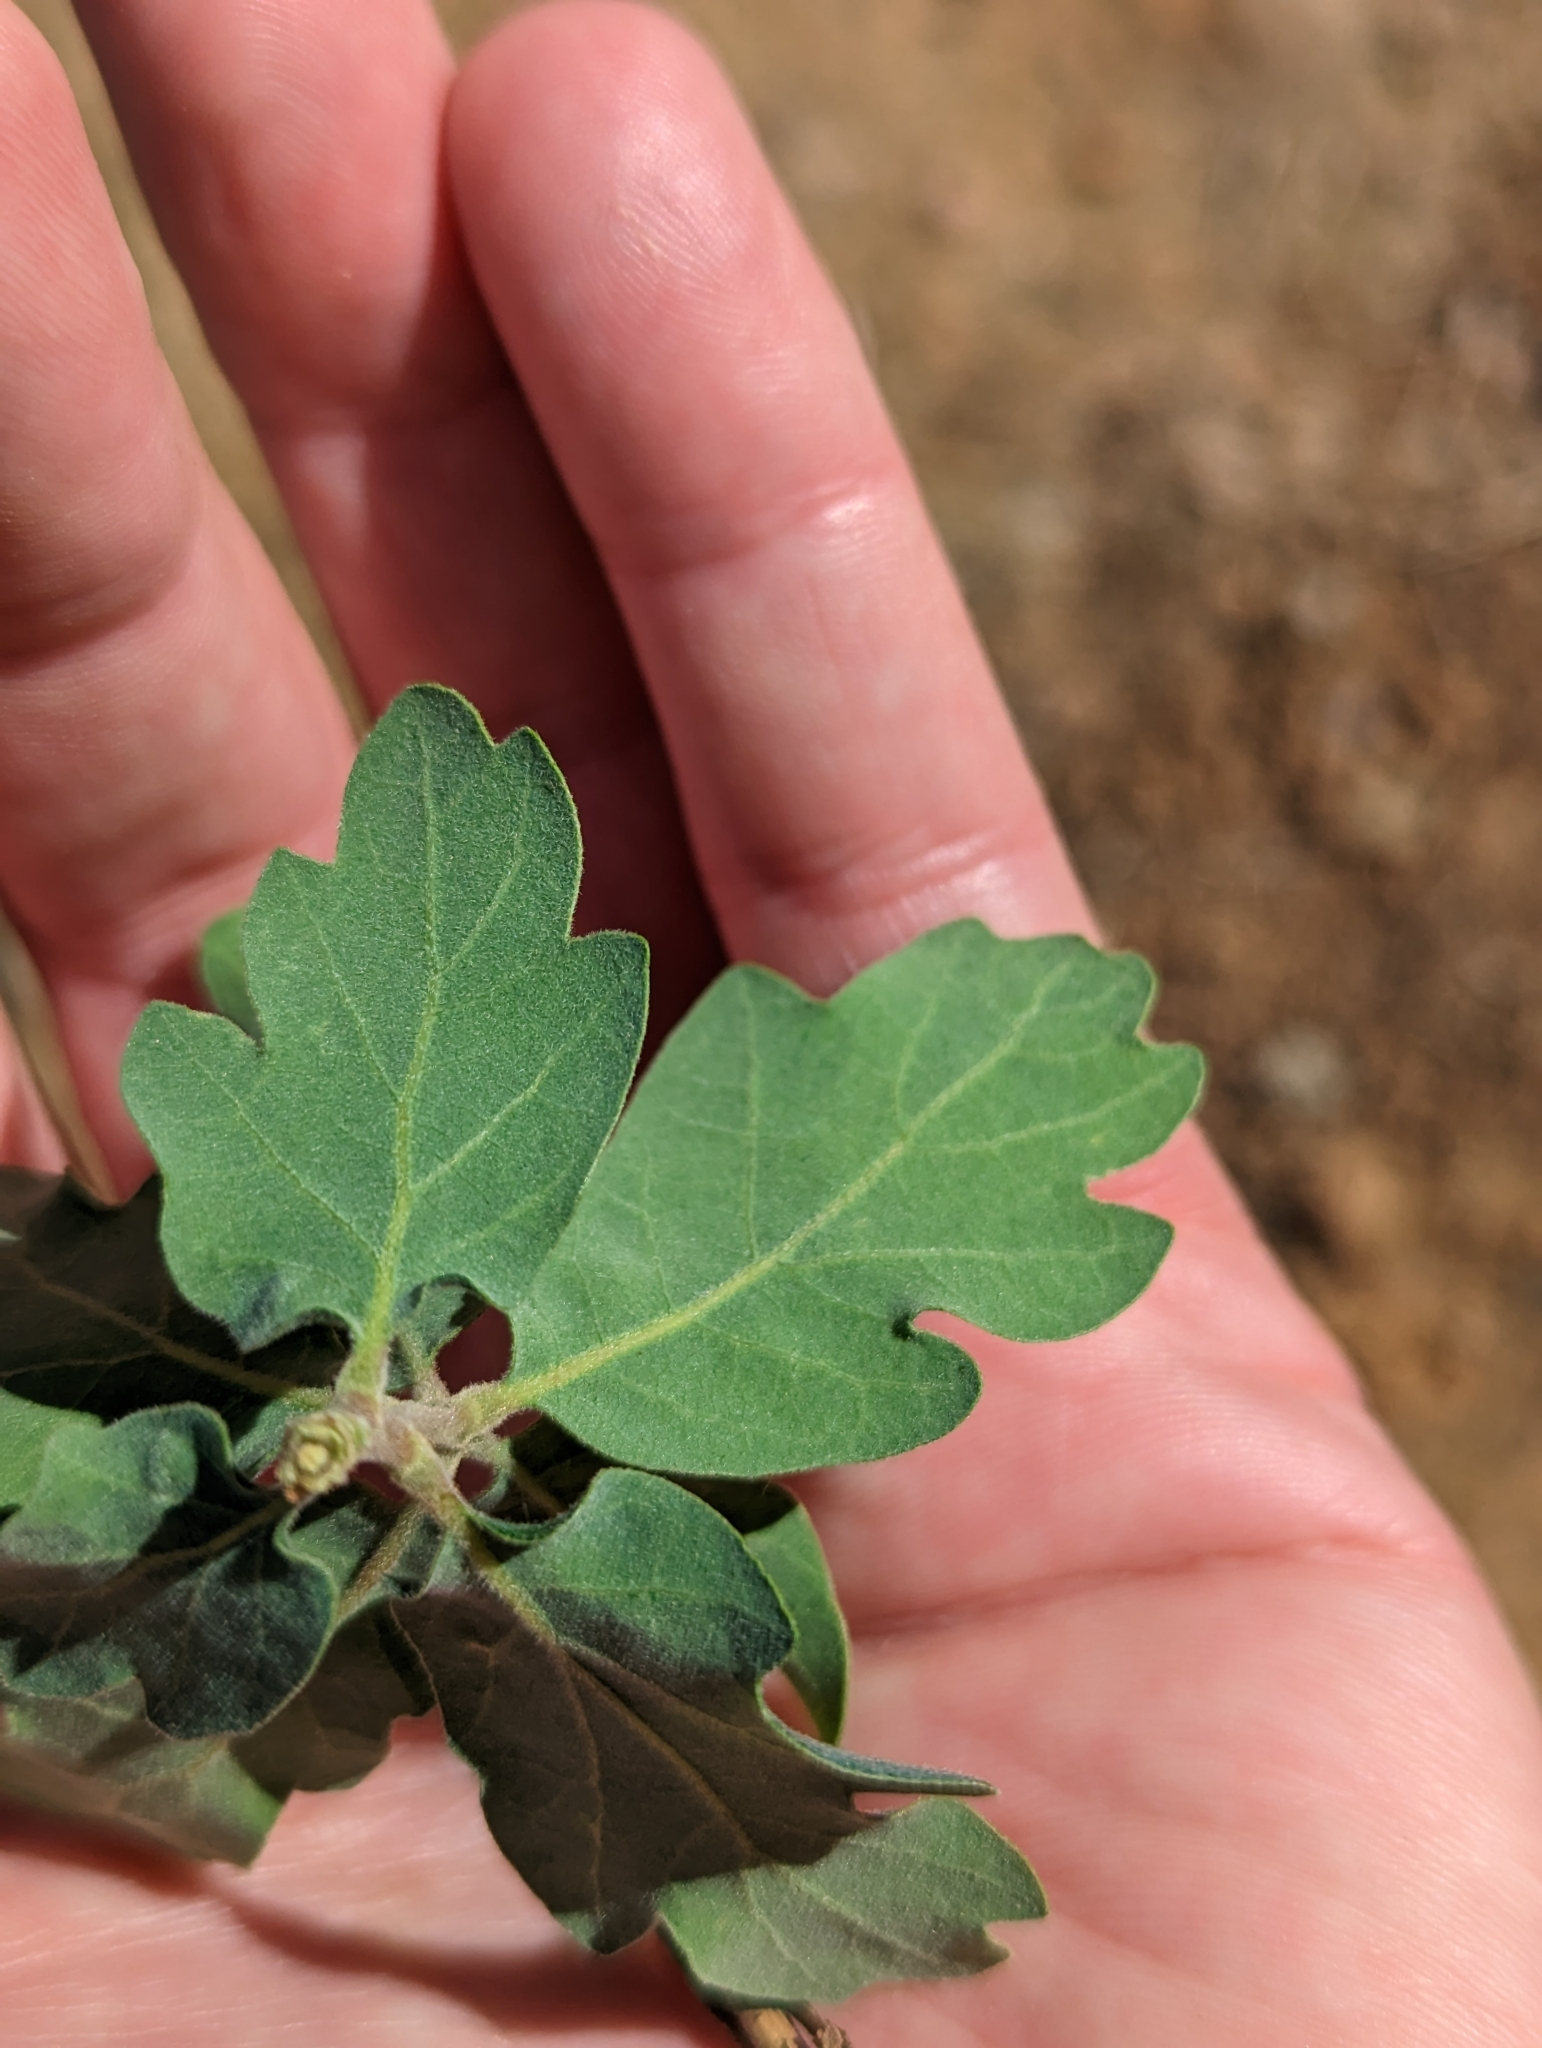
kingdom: Plantae
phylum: Tracheophyta
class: Magnoliopsida
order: Fagales
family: Fagaceae
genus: Quercus
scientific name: Quercus douglasii
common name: Blue oak
